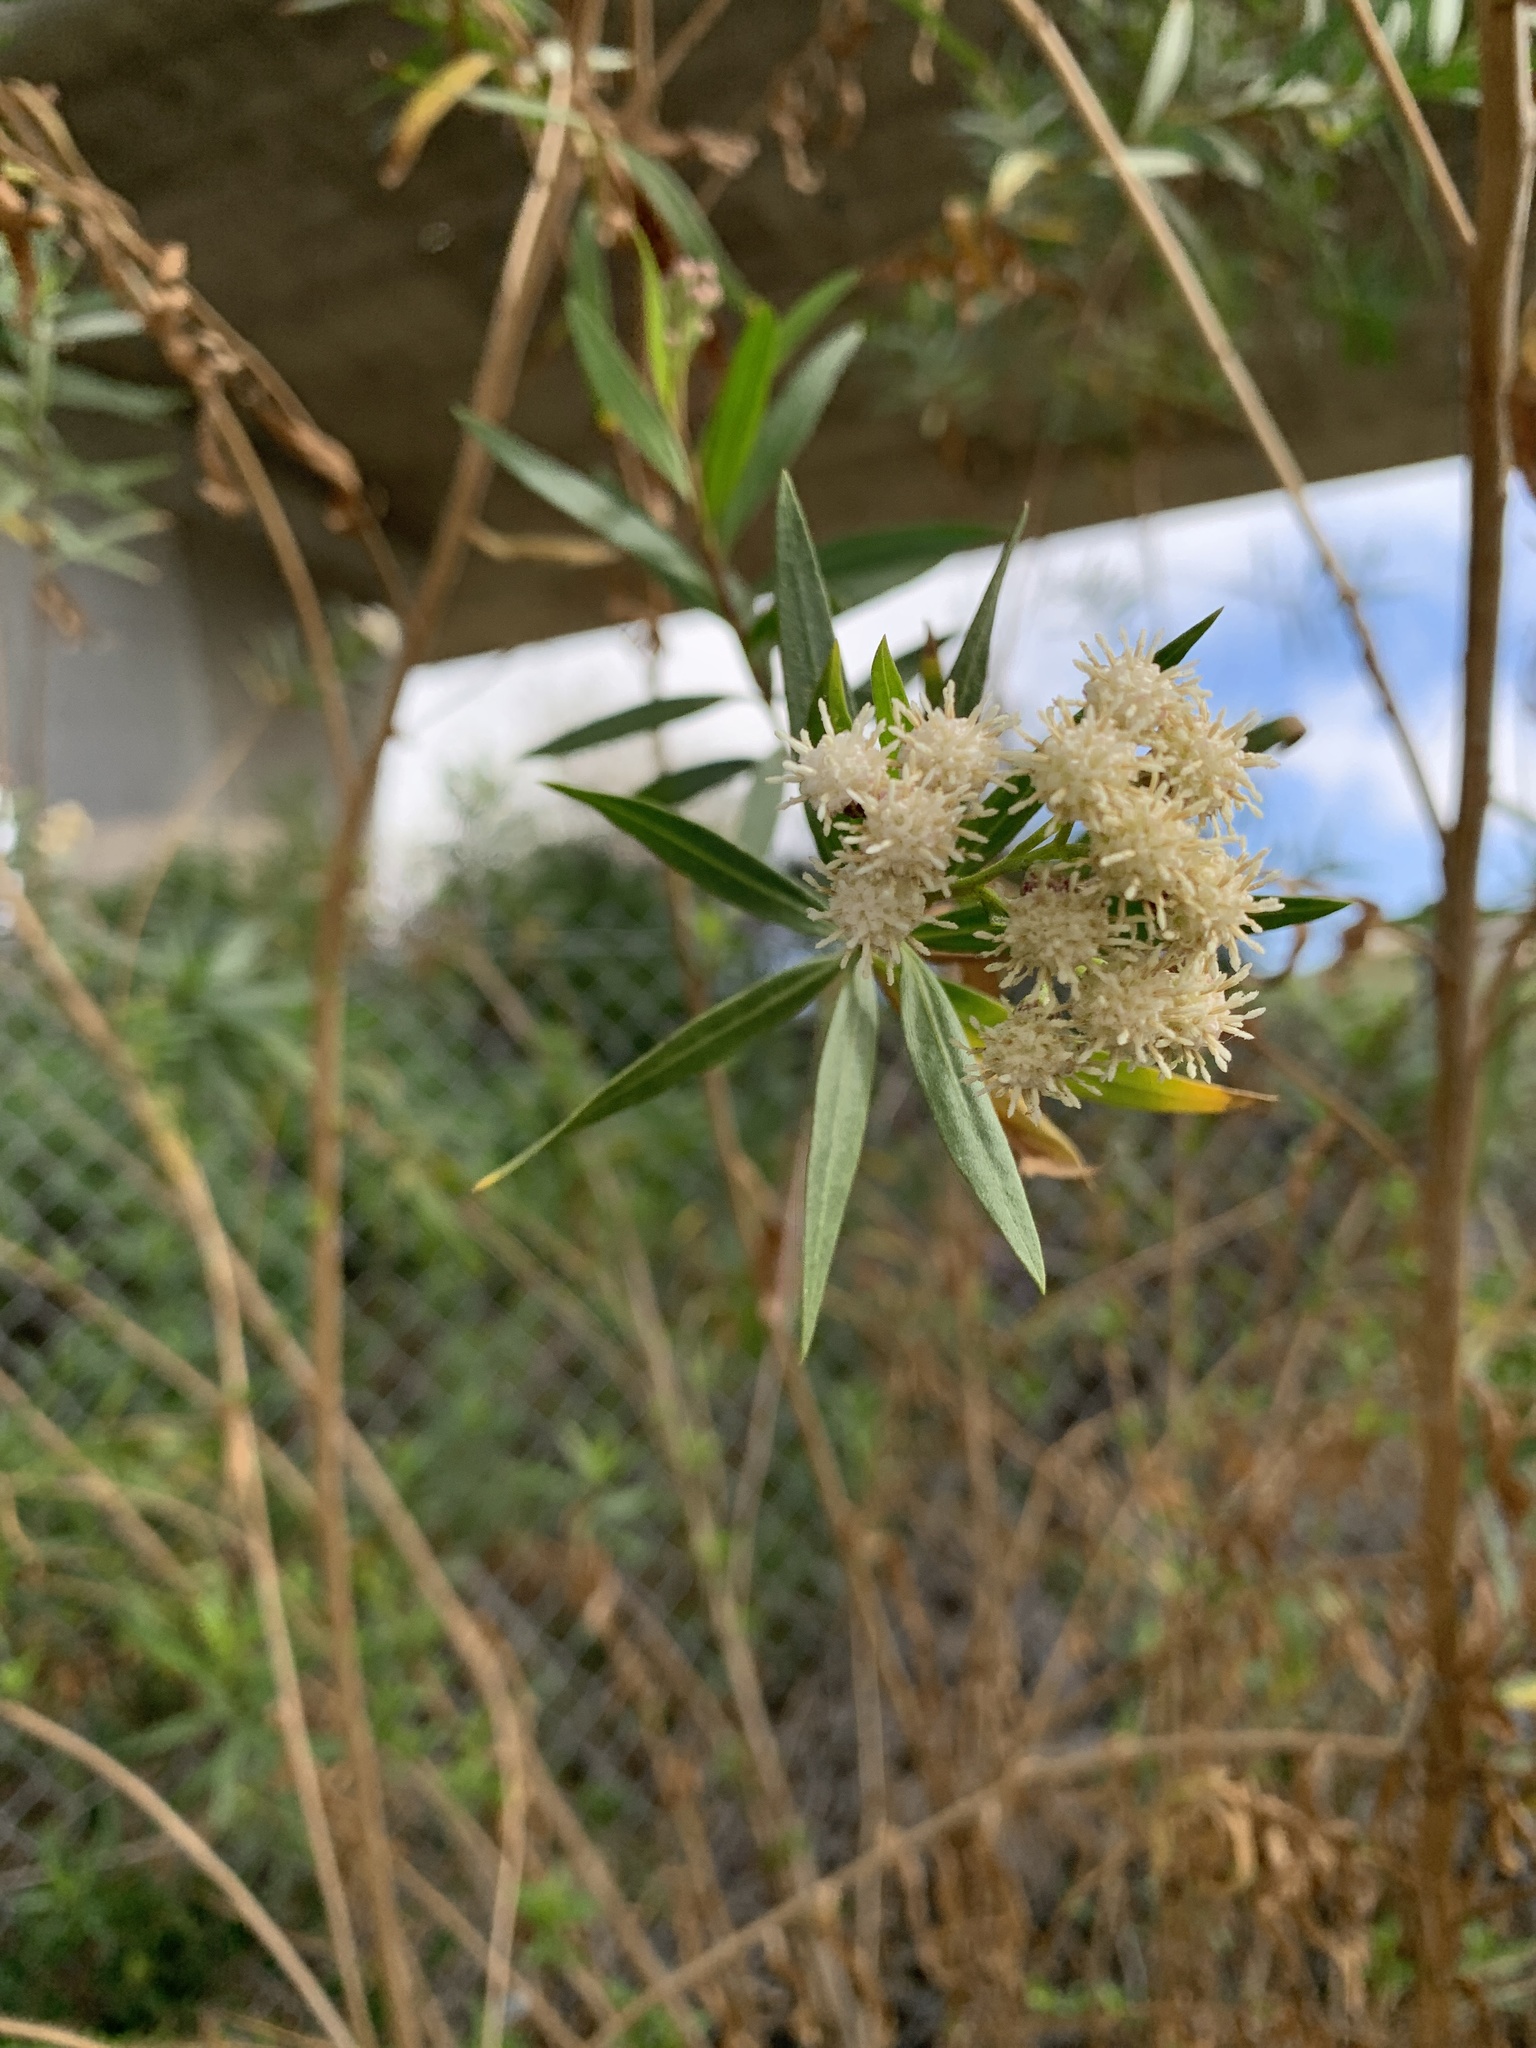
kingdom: Plantae
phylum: Tracheophyta
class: Magnoliopsida
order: Asterales
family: Asteraceae
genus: Baccharis
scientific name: Baccharis salicifolia
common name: Sticky baccharis
